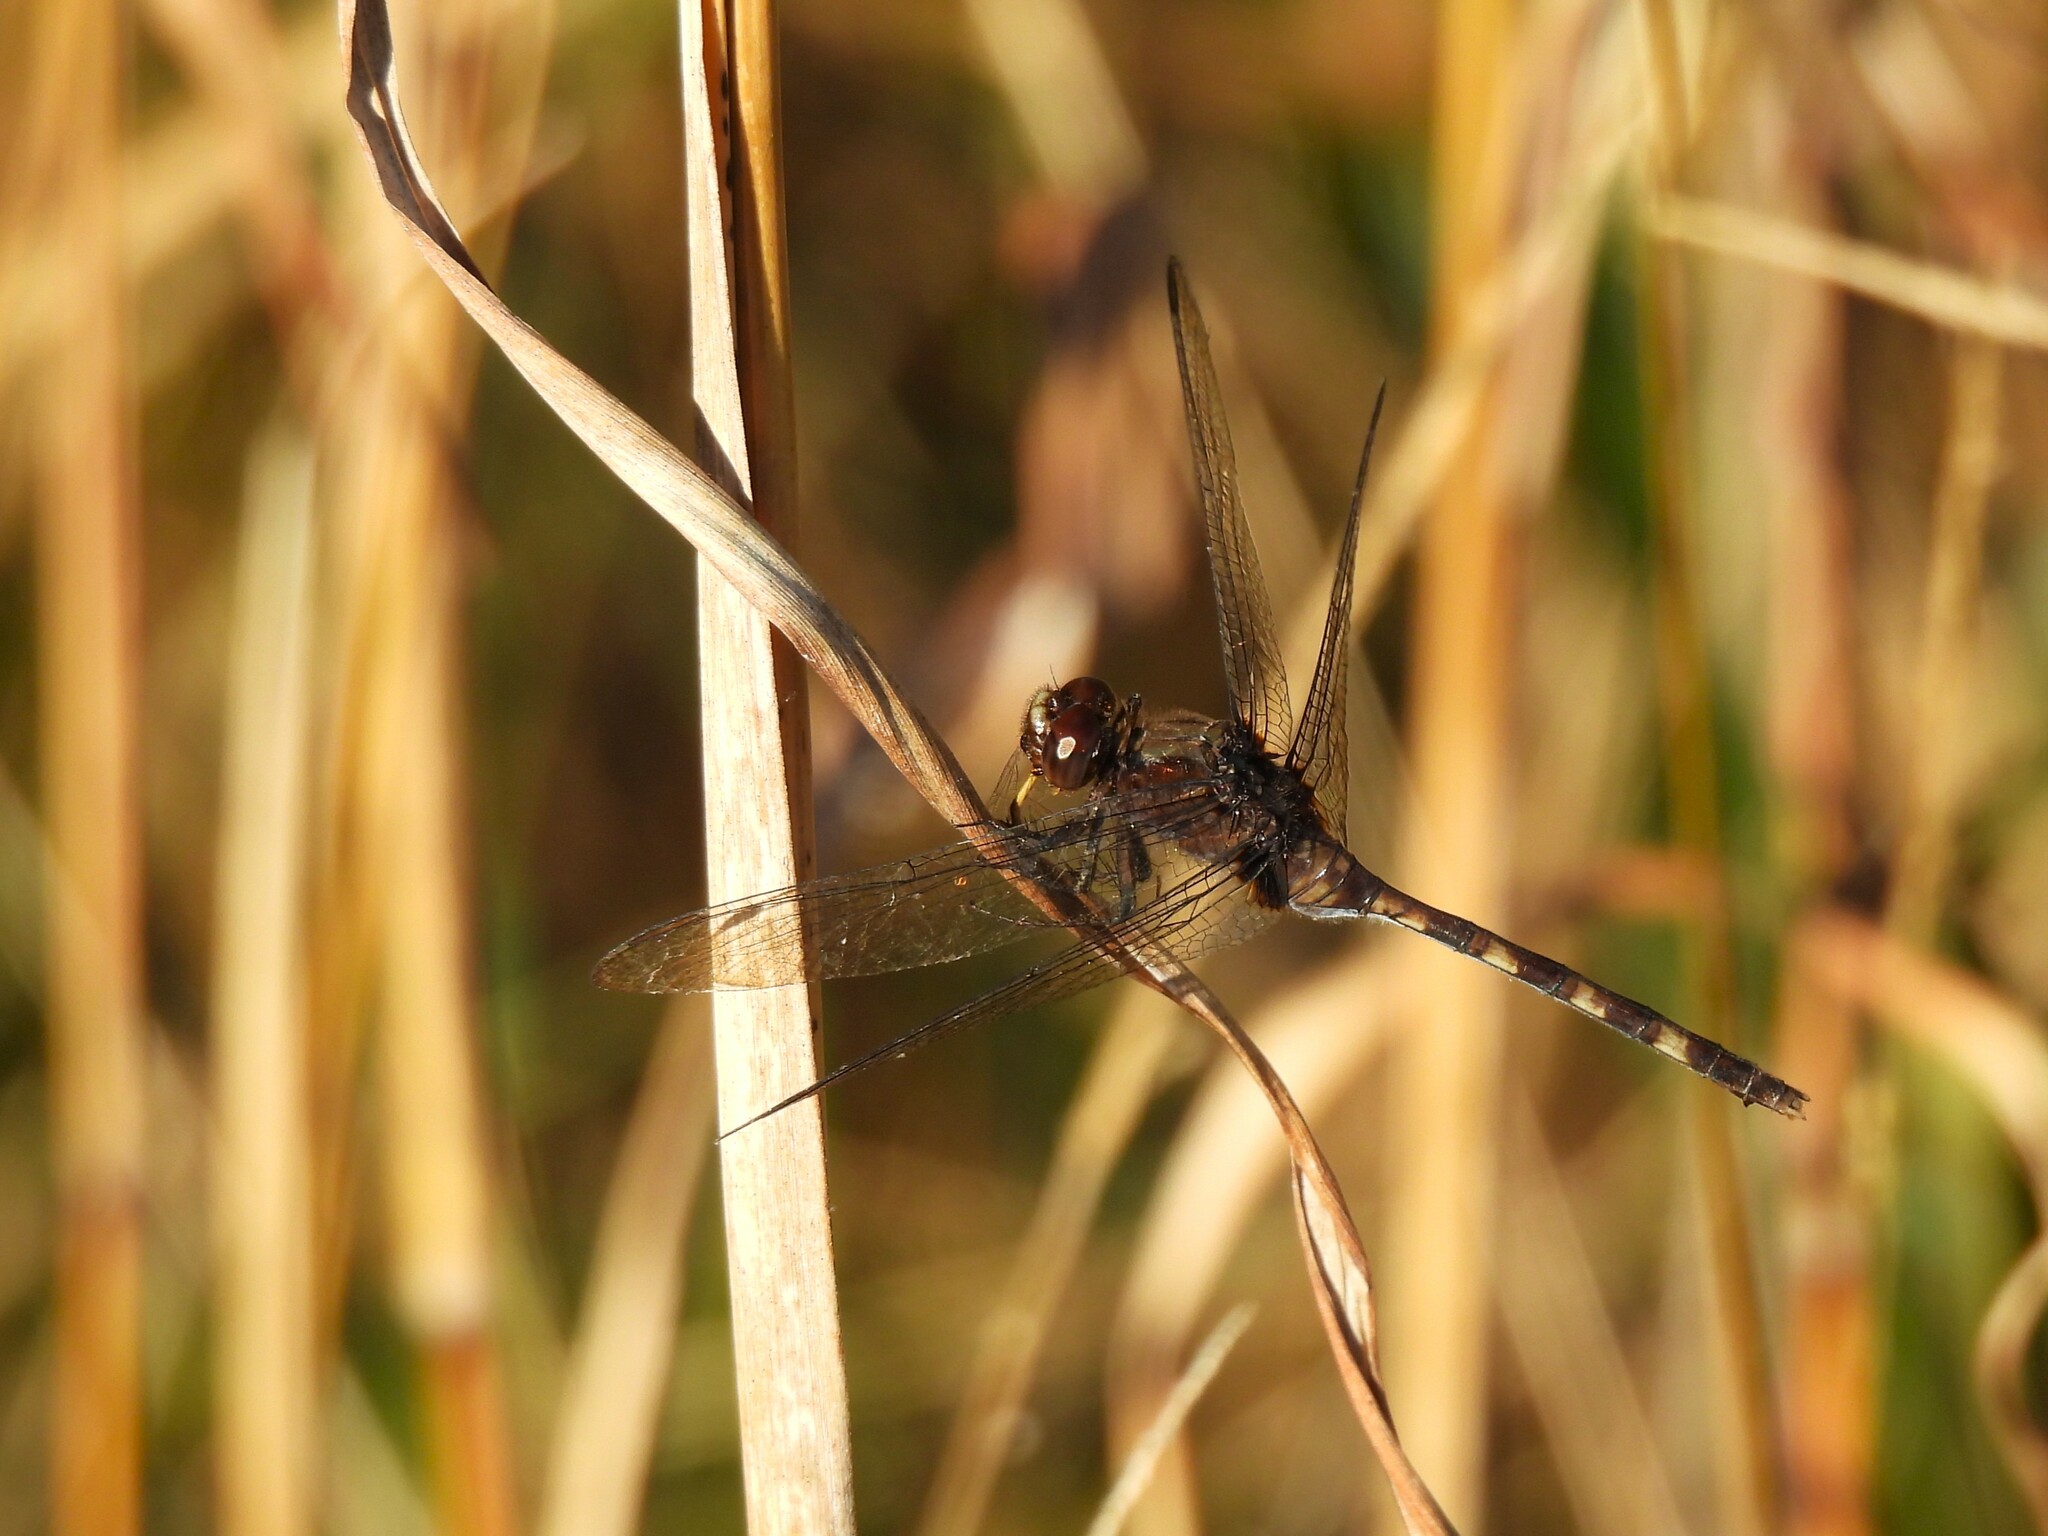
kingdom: Animalia
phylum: Arthropoda
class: Insecta
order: Odonata
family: Libellulidae
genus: Erythemis
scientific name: Erythemis plebeja
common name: Pin-tailed pondhawk
